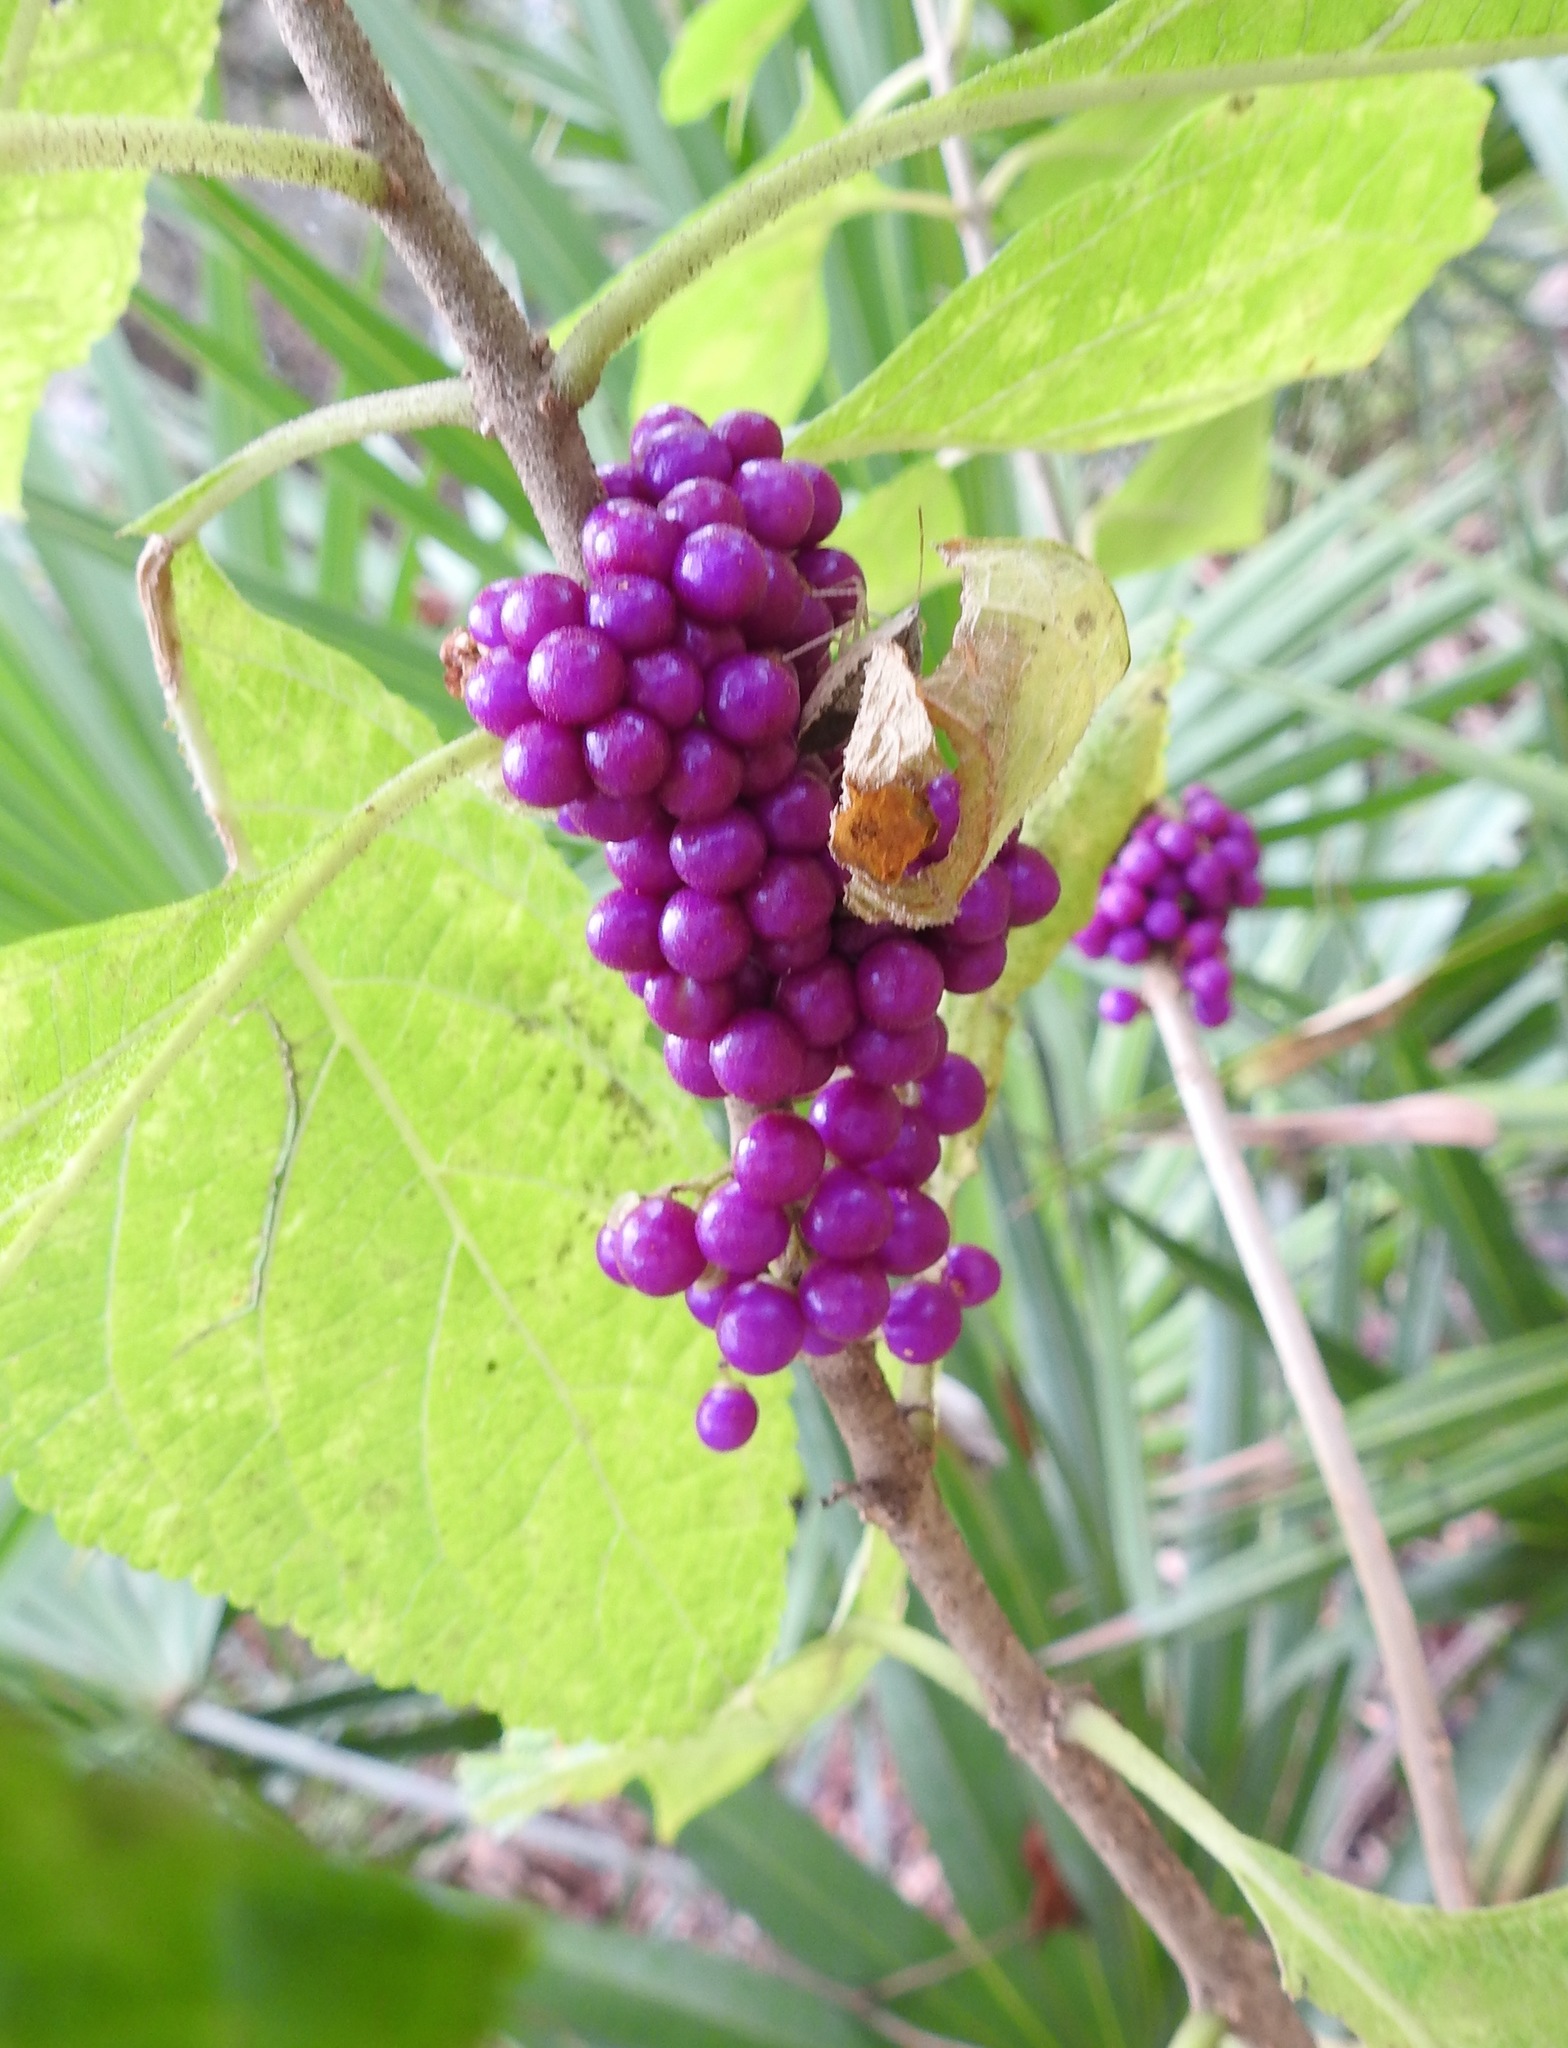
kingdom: Plantae
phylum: Tracheophyta
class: Magnoliopsida
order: Lamiales
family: Lamiaceae
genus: Callicarpa
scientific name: Callicarpa americana
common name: American beautyberry
